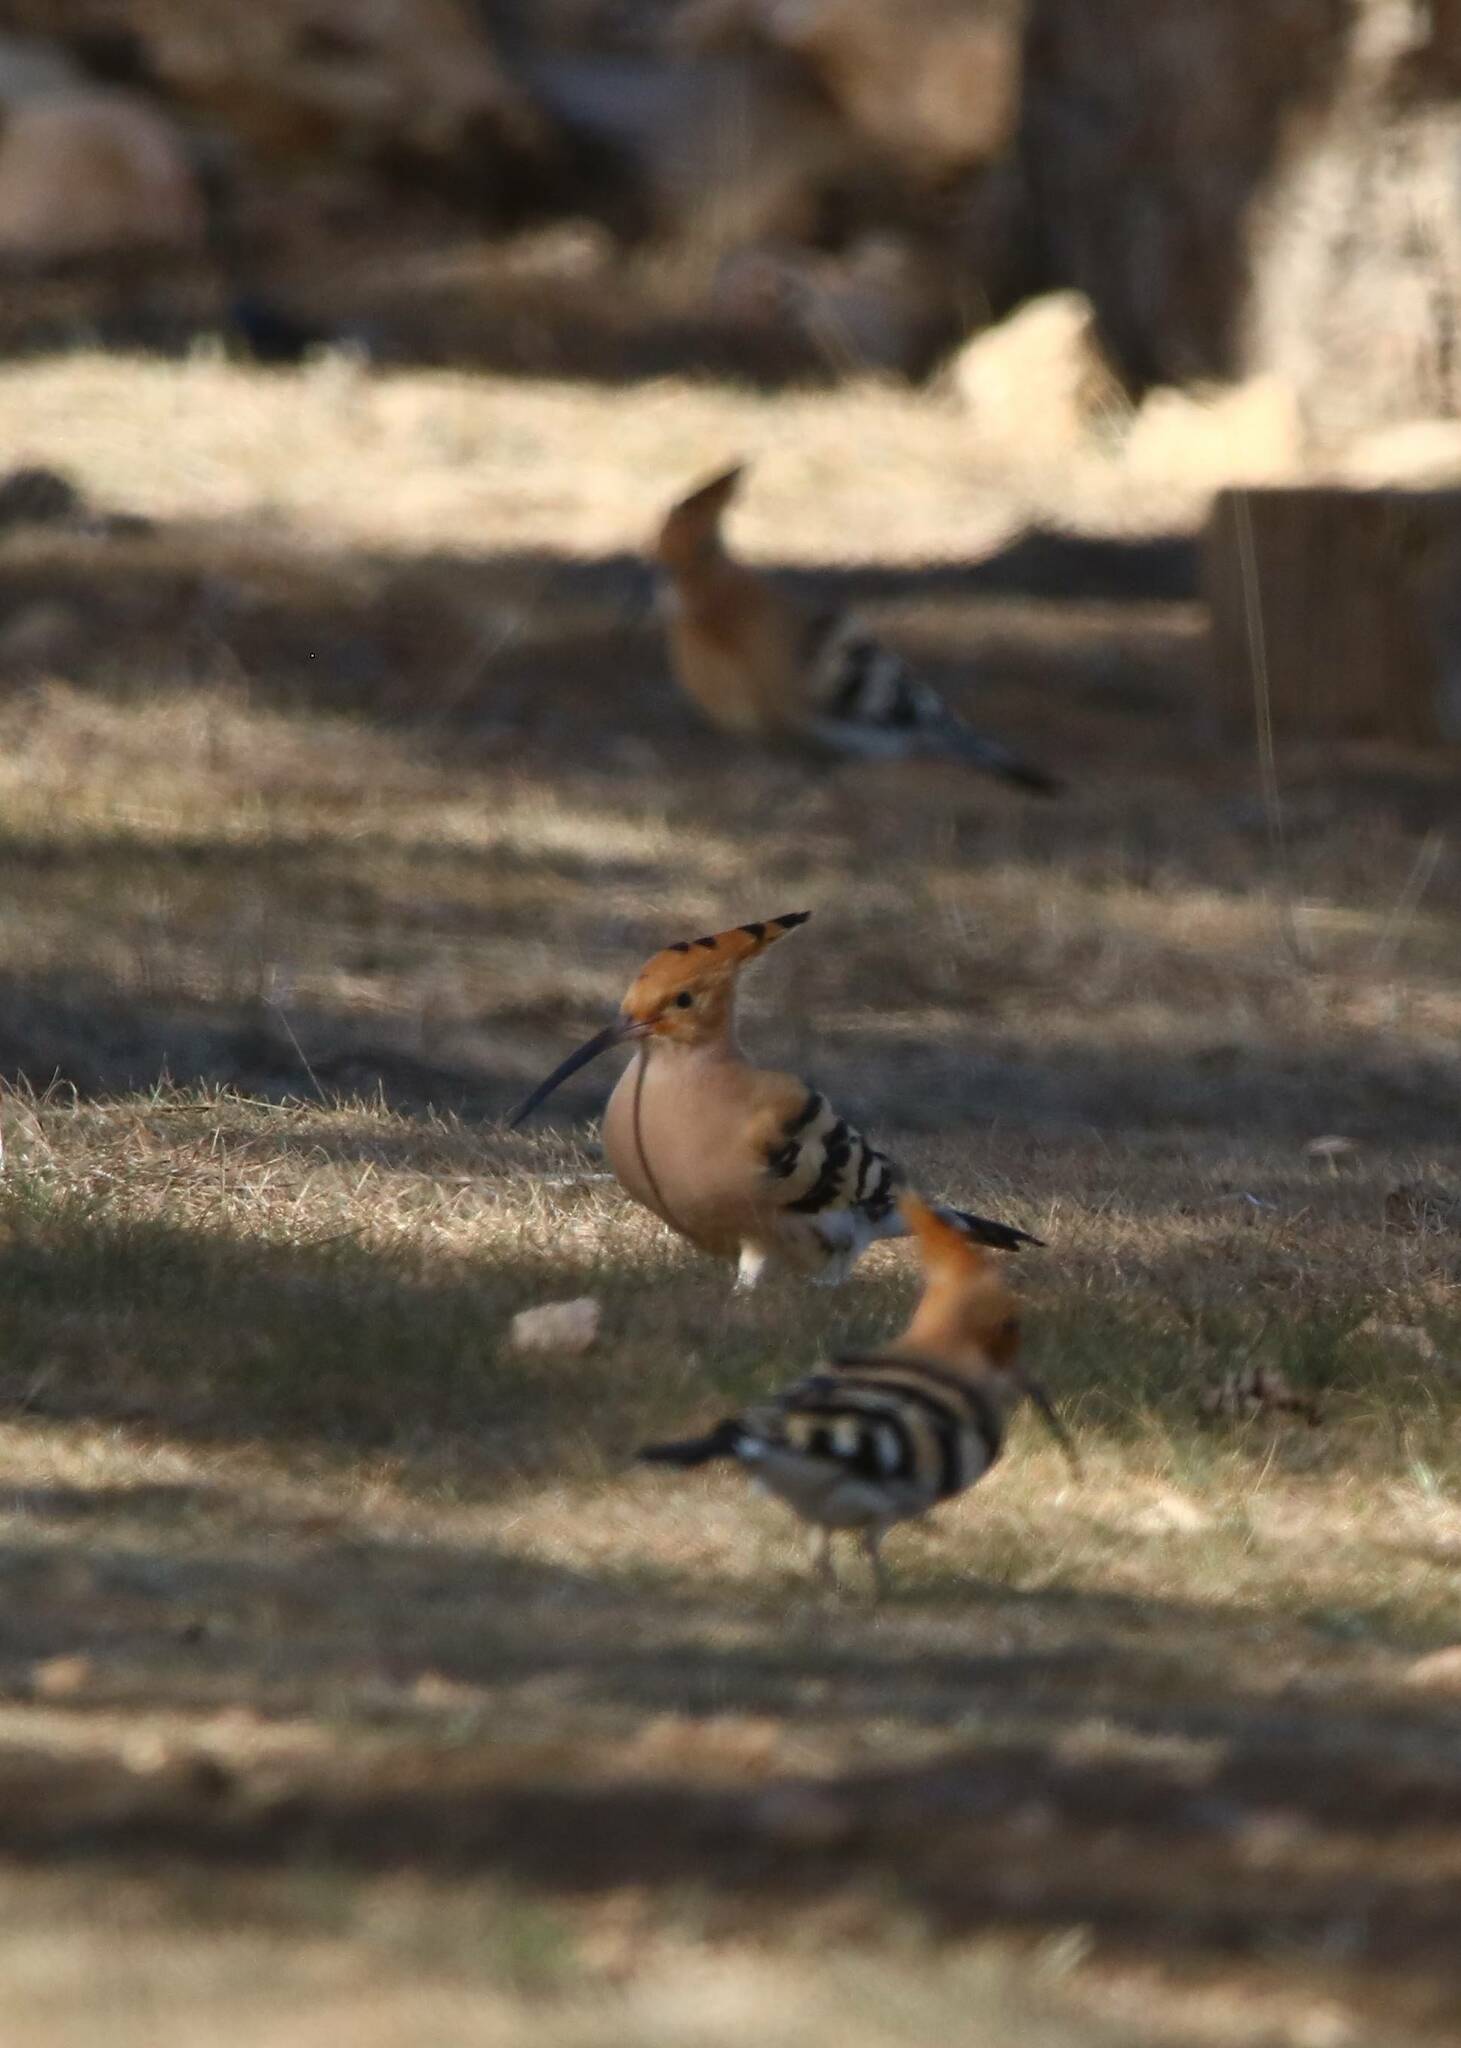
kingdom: Animalia
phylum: Chordata
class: Aves
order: Bucerotiformes
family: Upupidae
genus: Upupa
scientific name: Upupa epops
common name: Eurasian hoopoe
